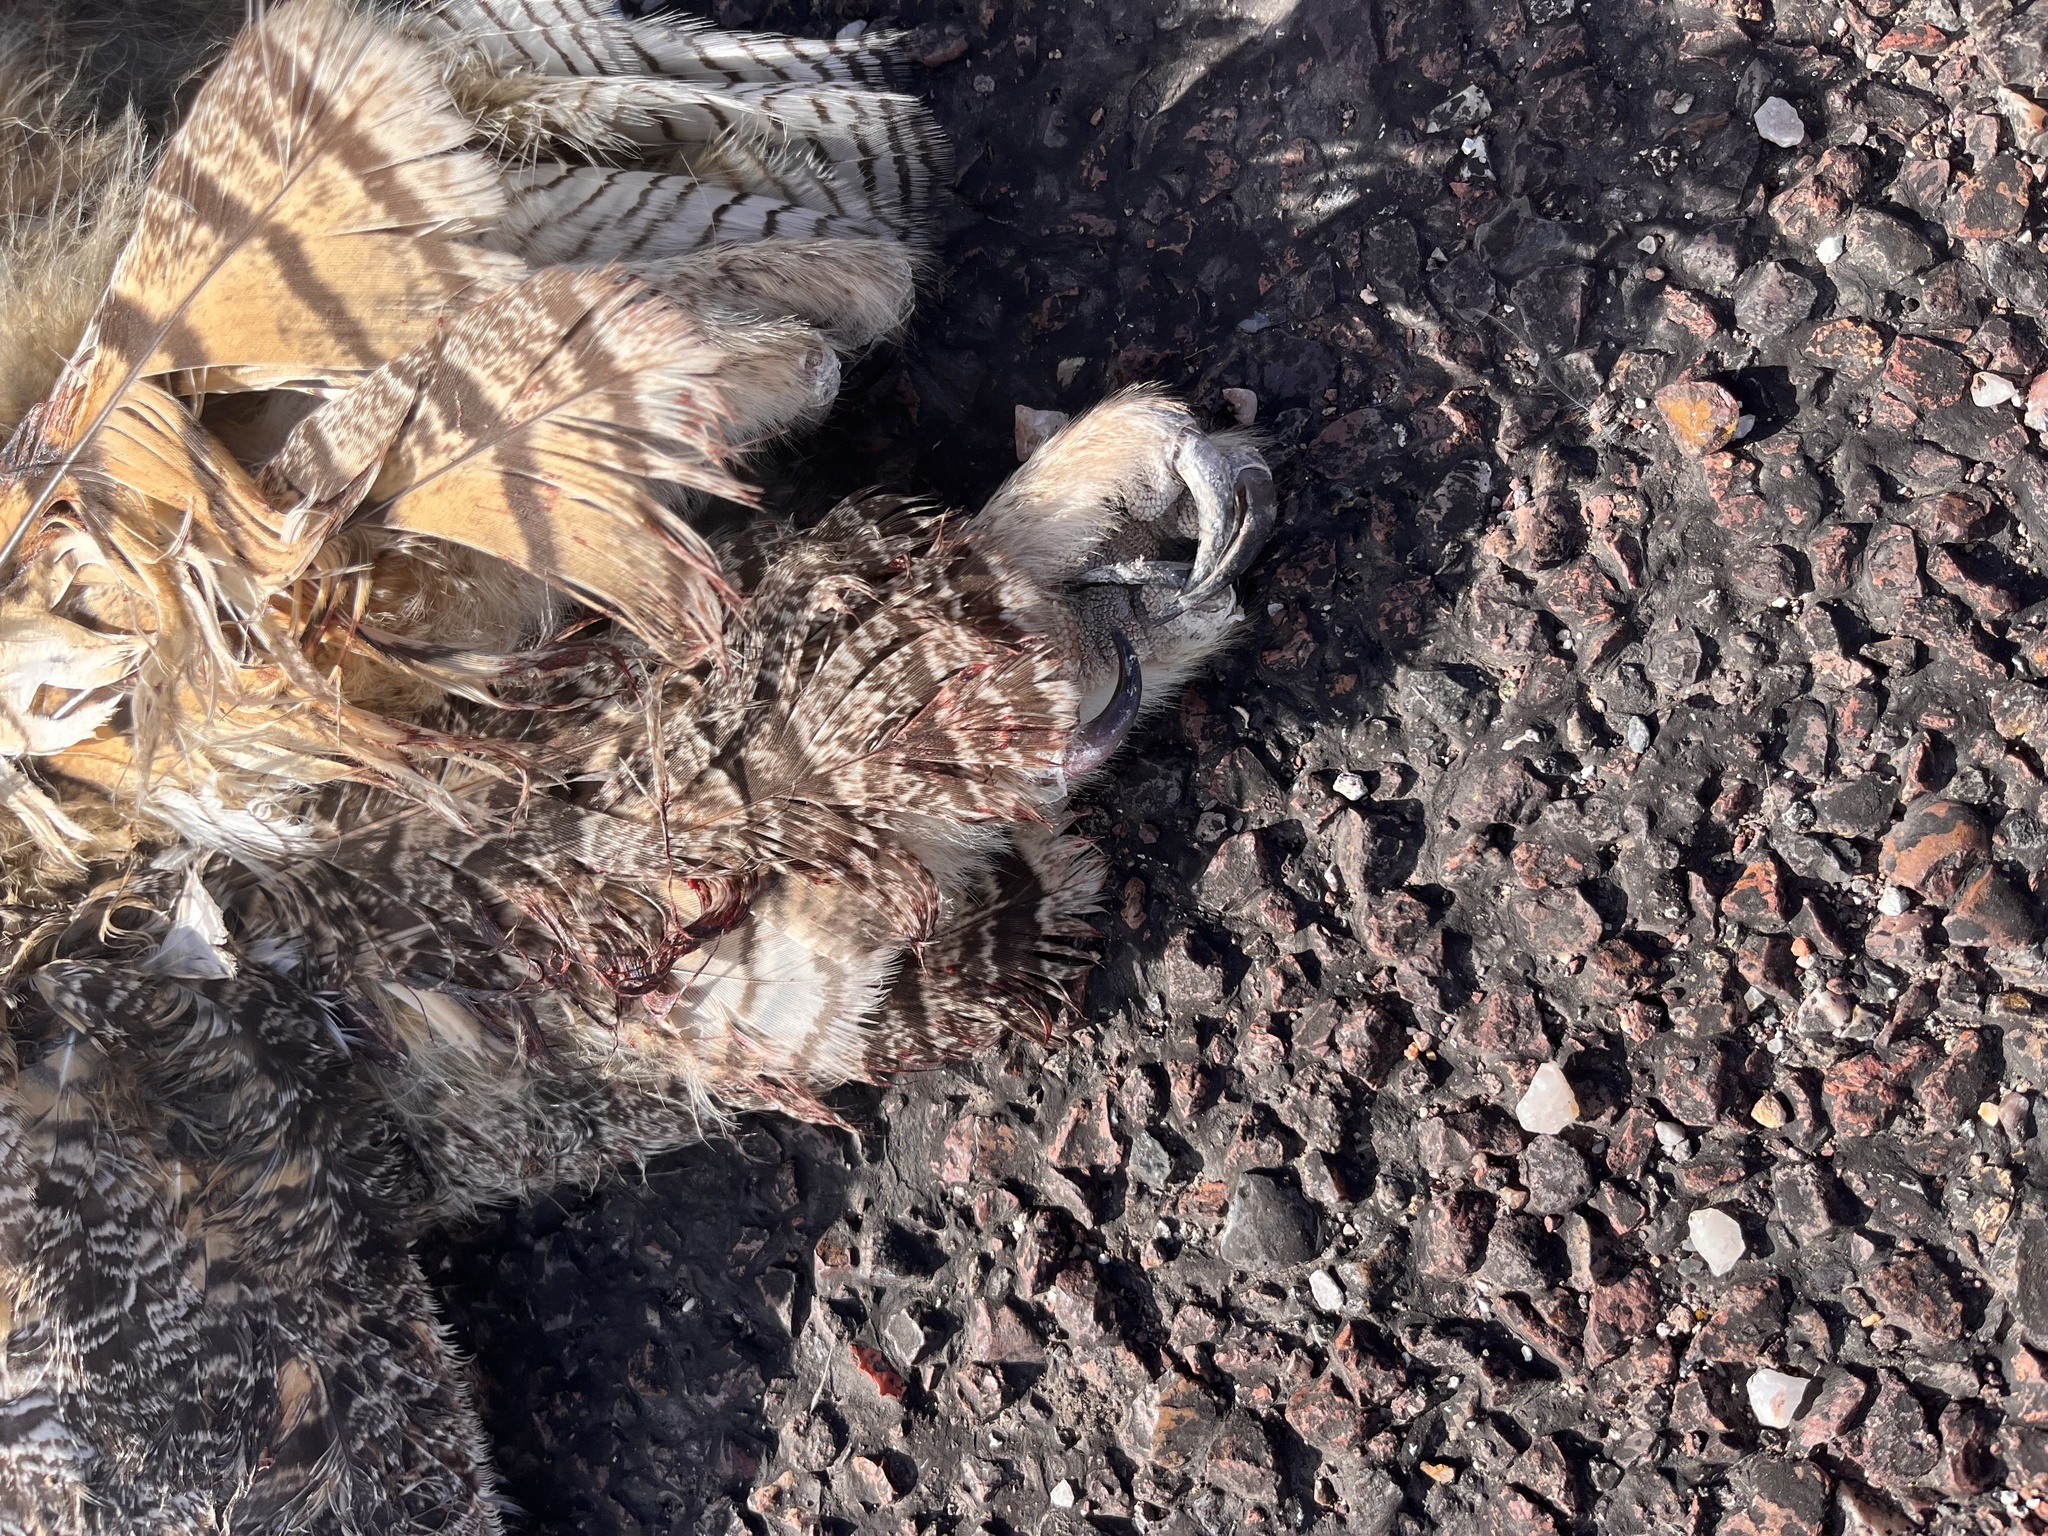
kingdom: Animalia
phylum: Chordata
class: Aves
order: Strigiformes
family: Strigidae
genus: Bubo
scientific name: Bubo virginianus
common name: Great horned owl
